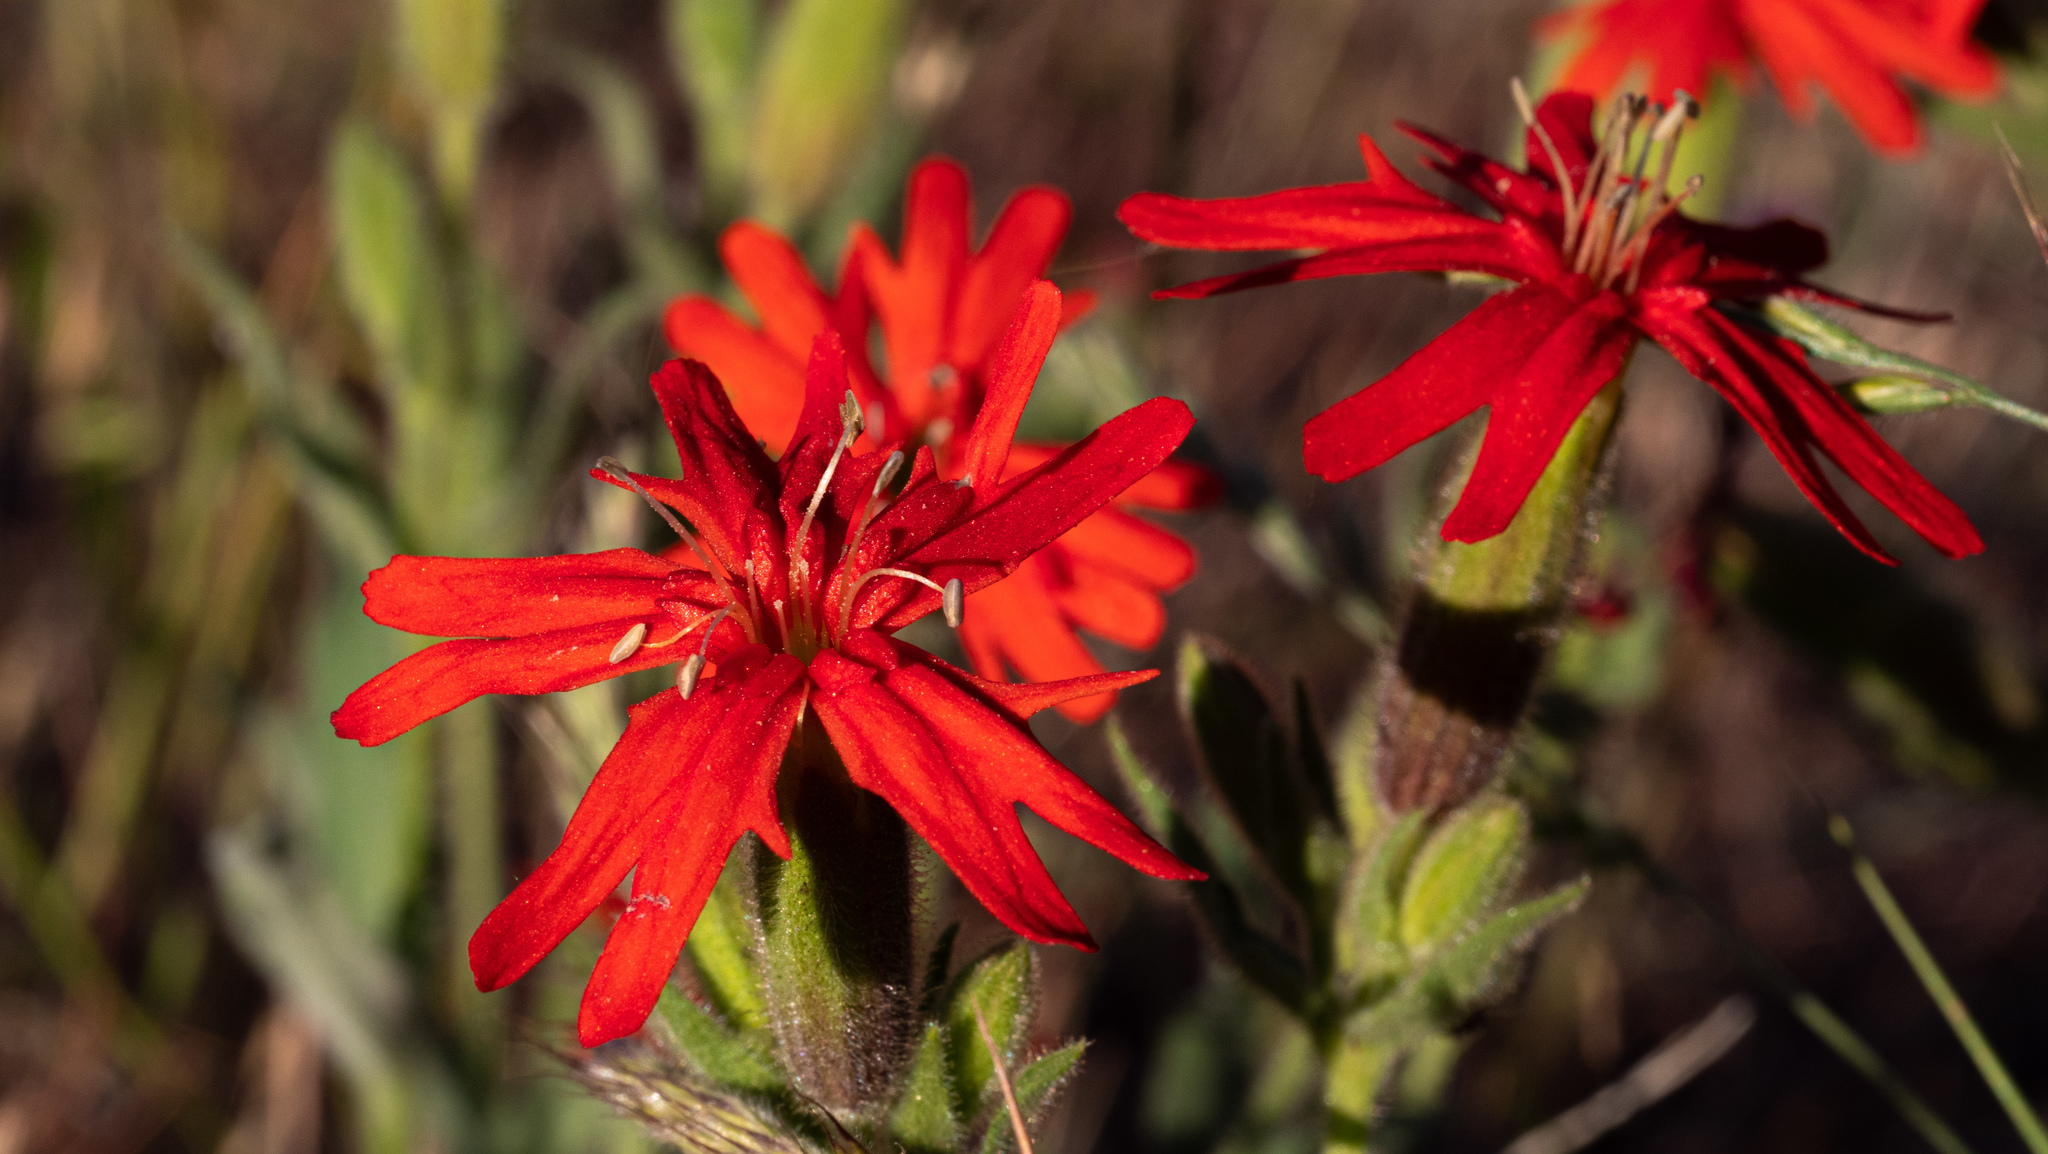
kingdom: Plantae
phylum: Tracheophyta
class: Magnoliopsida
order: Caryophyllales
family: Caryophyllaceae
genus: Silene
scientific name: Silene laciniata
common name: Indian-pink
